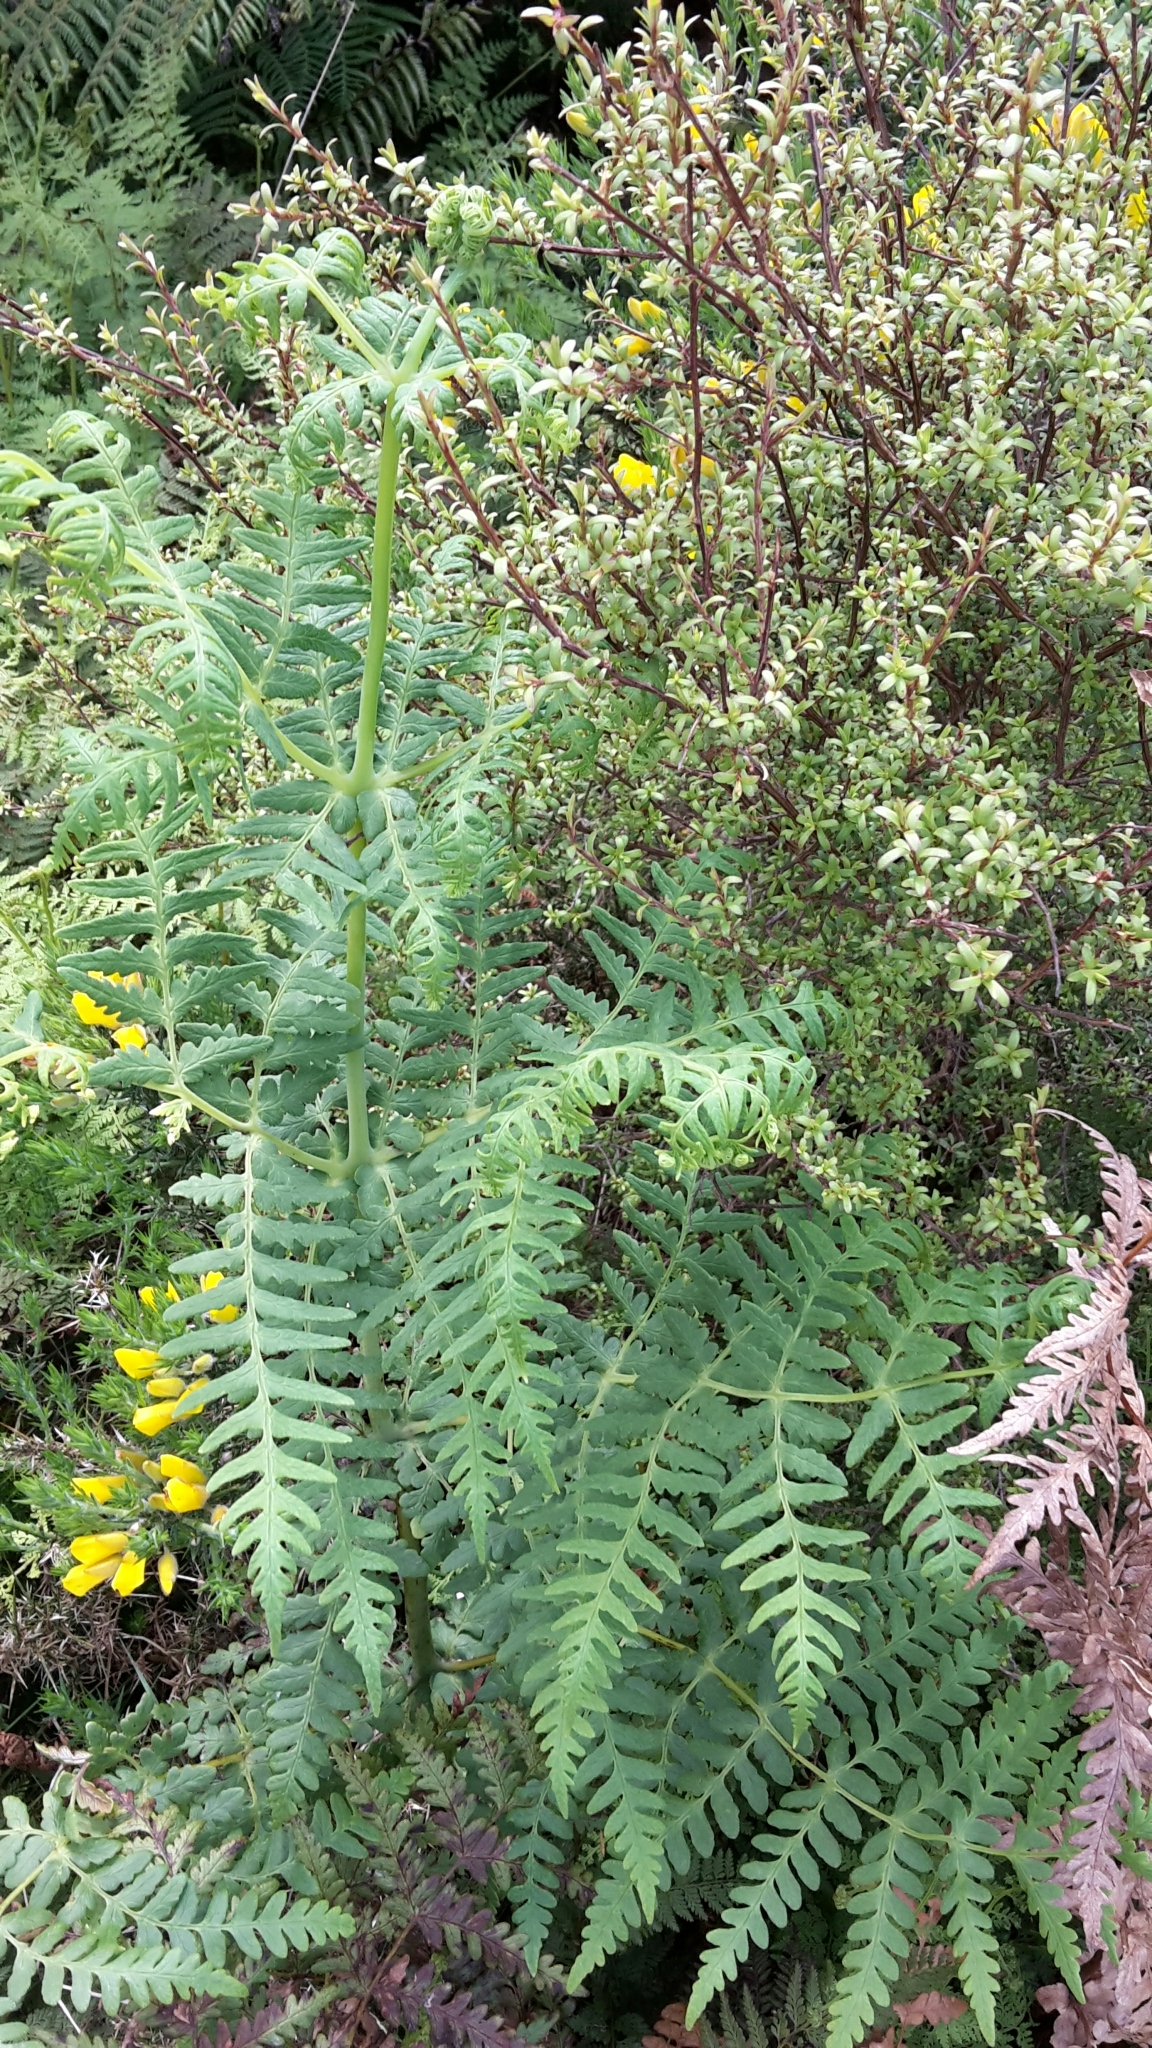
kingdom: Plantae
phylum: Tracheophyta
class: Polypodiopsida
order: Polypodiales
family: Dennstaedtiaceae
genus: Histiopteris
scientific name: Histiopteris incisa
